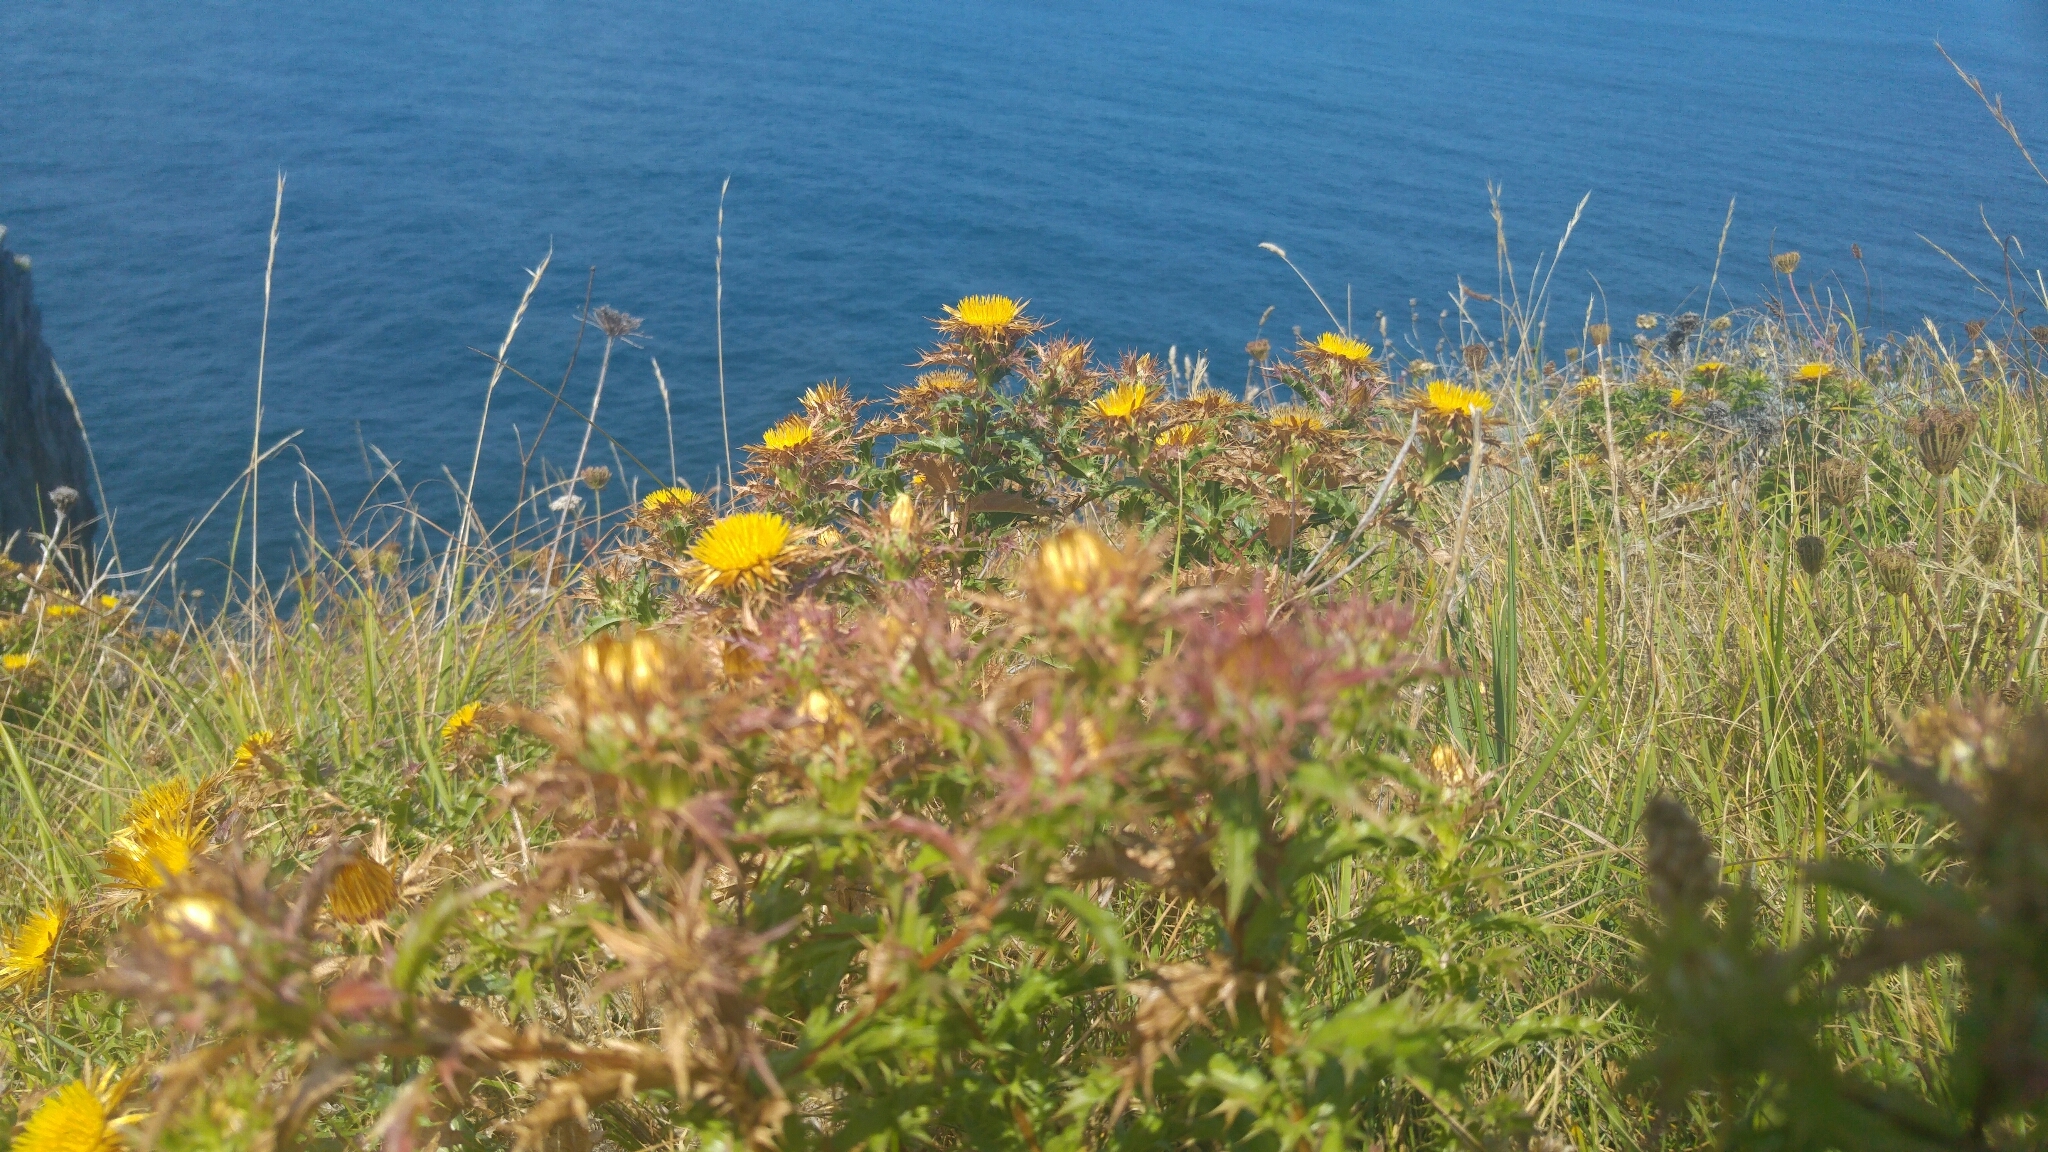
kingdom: Plantae
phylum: Tracheophyta
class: Magnoliopsida
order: Asterales
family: Asteraceae
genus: Carlina
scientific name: Carlina hispanica
